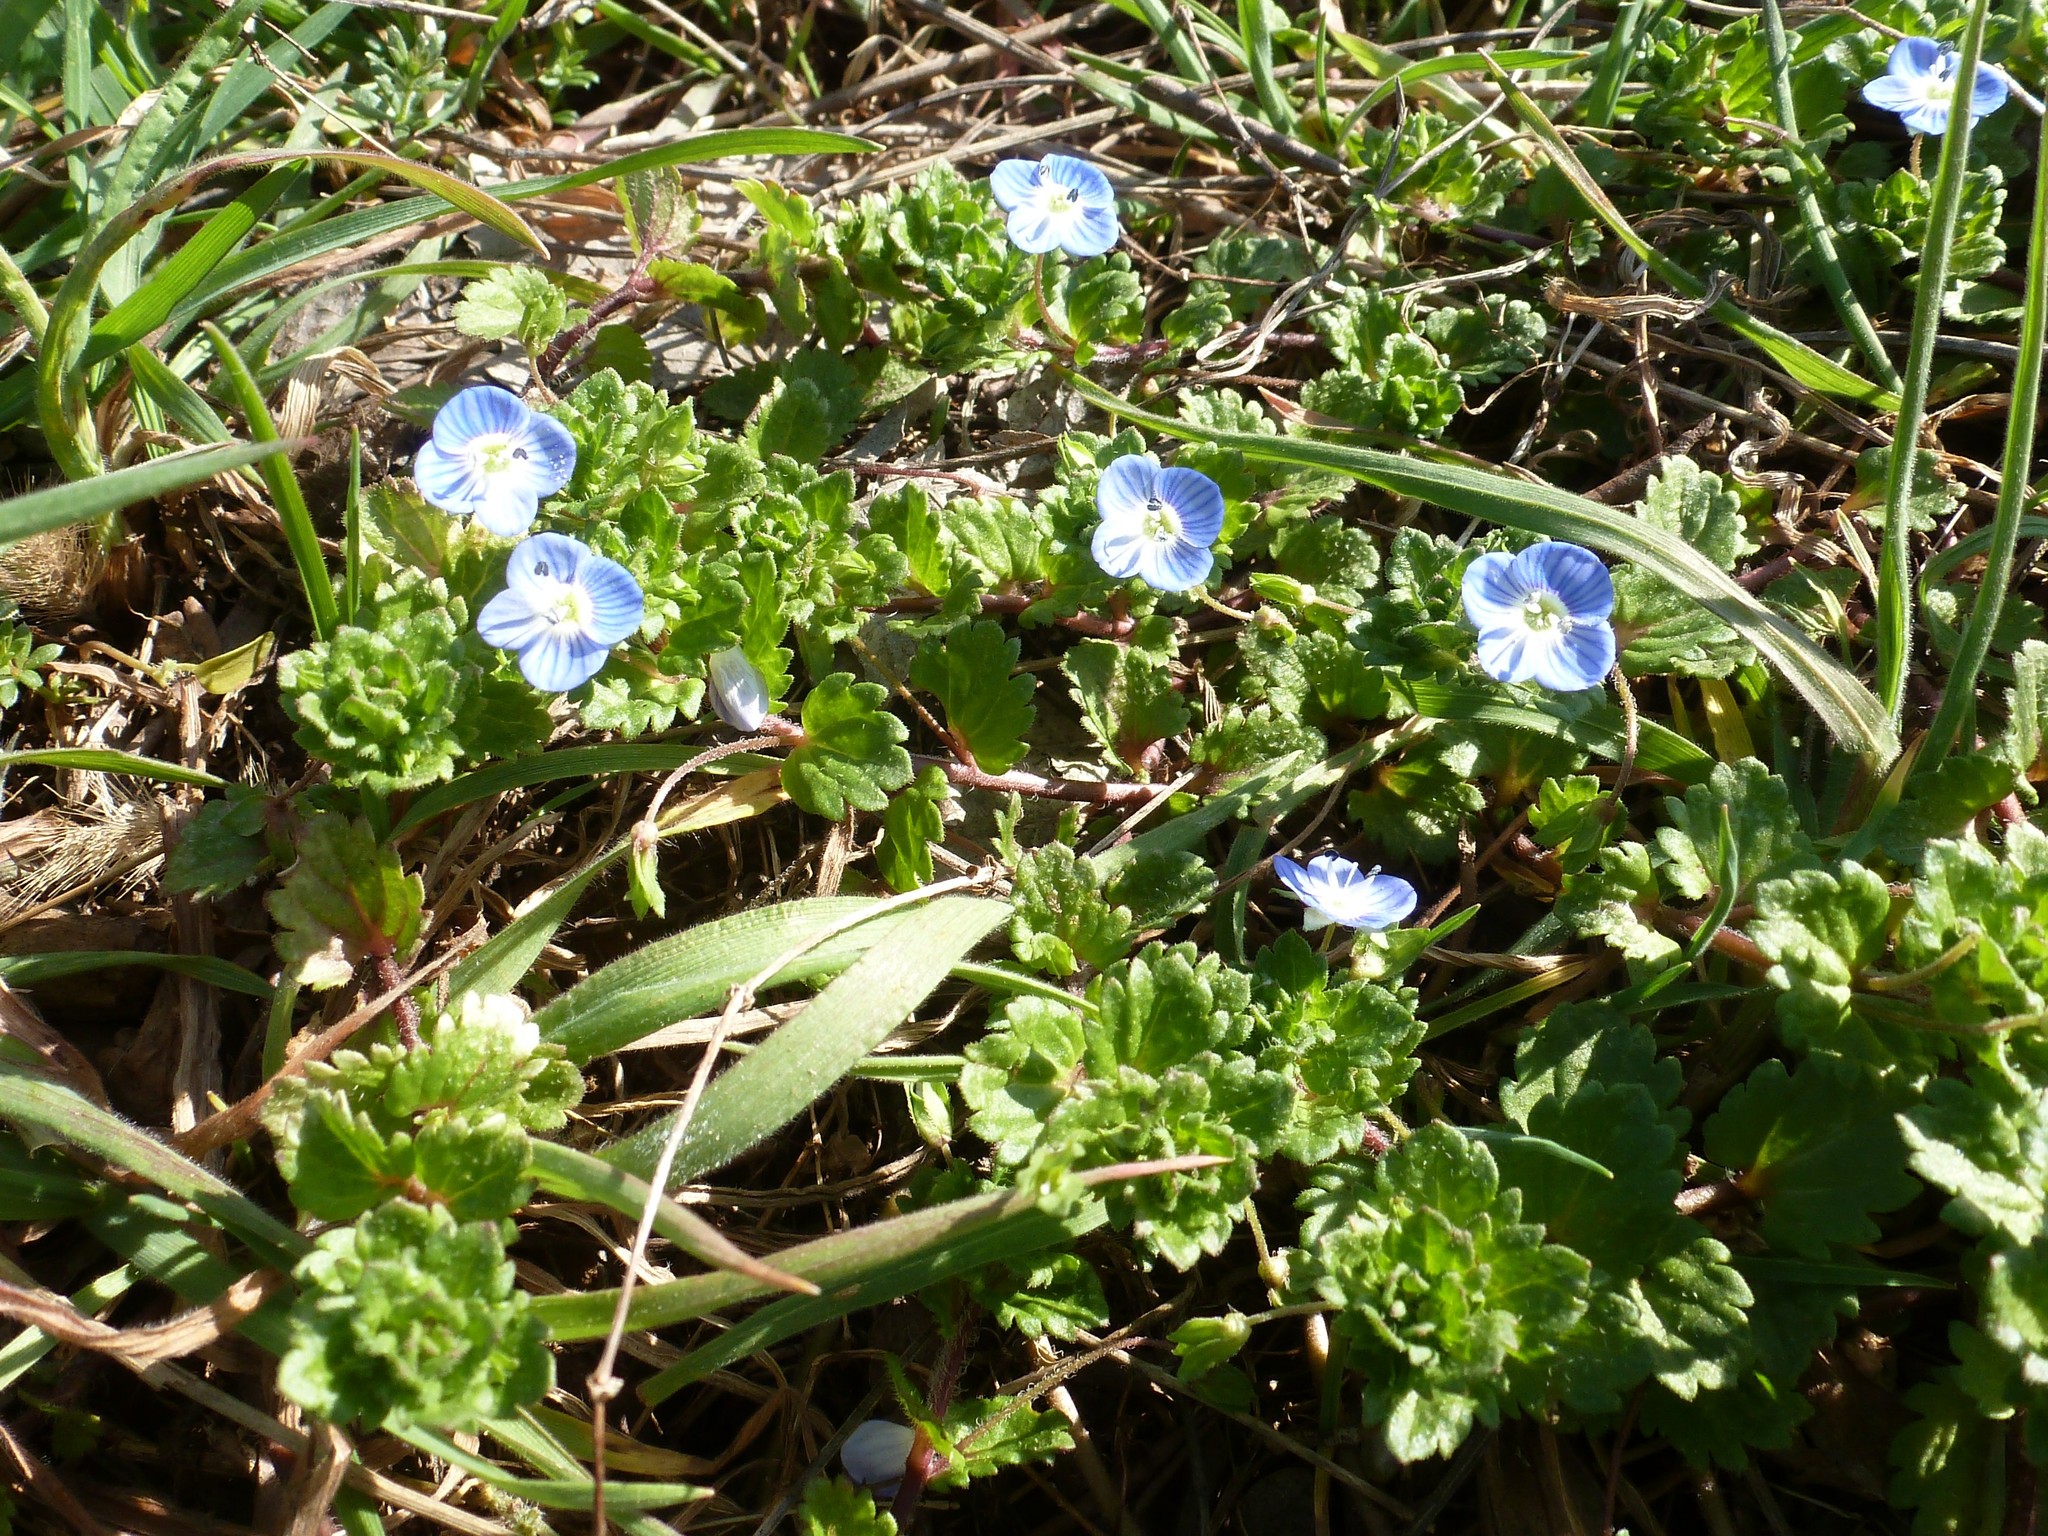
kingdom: Plantae
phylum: Tracheophyta
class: Magnoliopsida
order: Lamiales
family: Plantaginaceae
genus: Veronica
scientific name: Veronica persica
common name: Common field-speedwell
